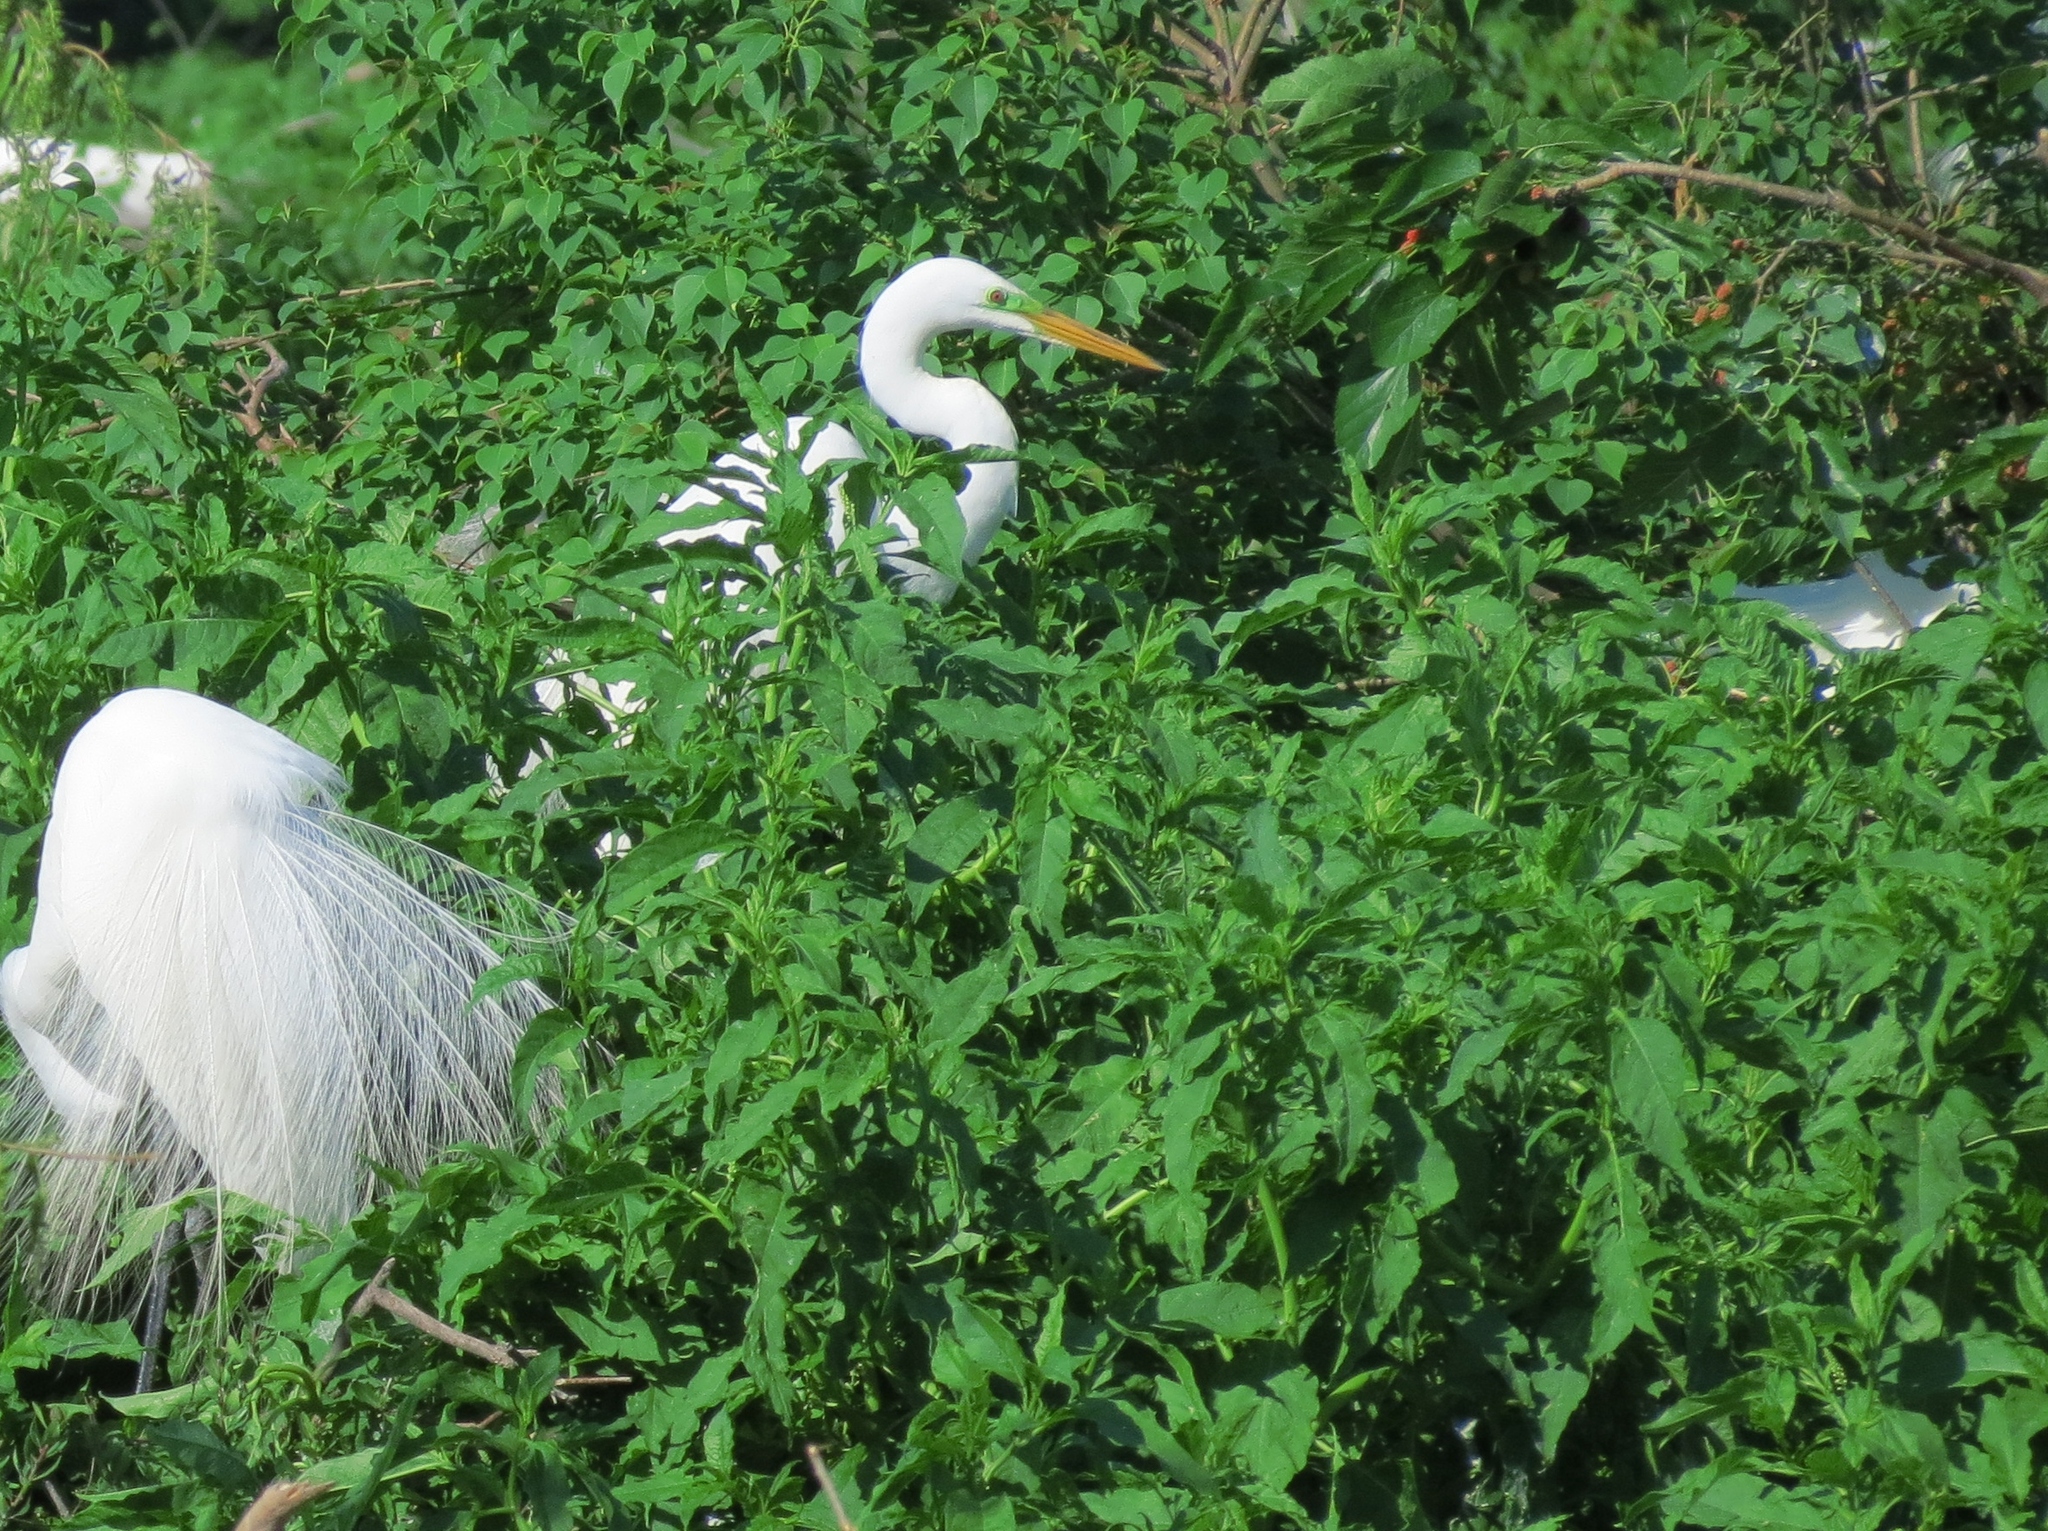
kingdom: Animalia
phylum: Chordata
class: Aves
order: Pelecaniformes
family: Ardeidae
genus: Ardea
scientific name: Ardea alba
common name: Great egret
